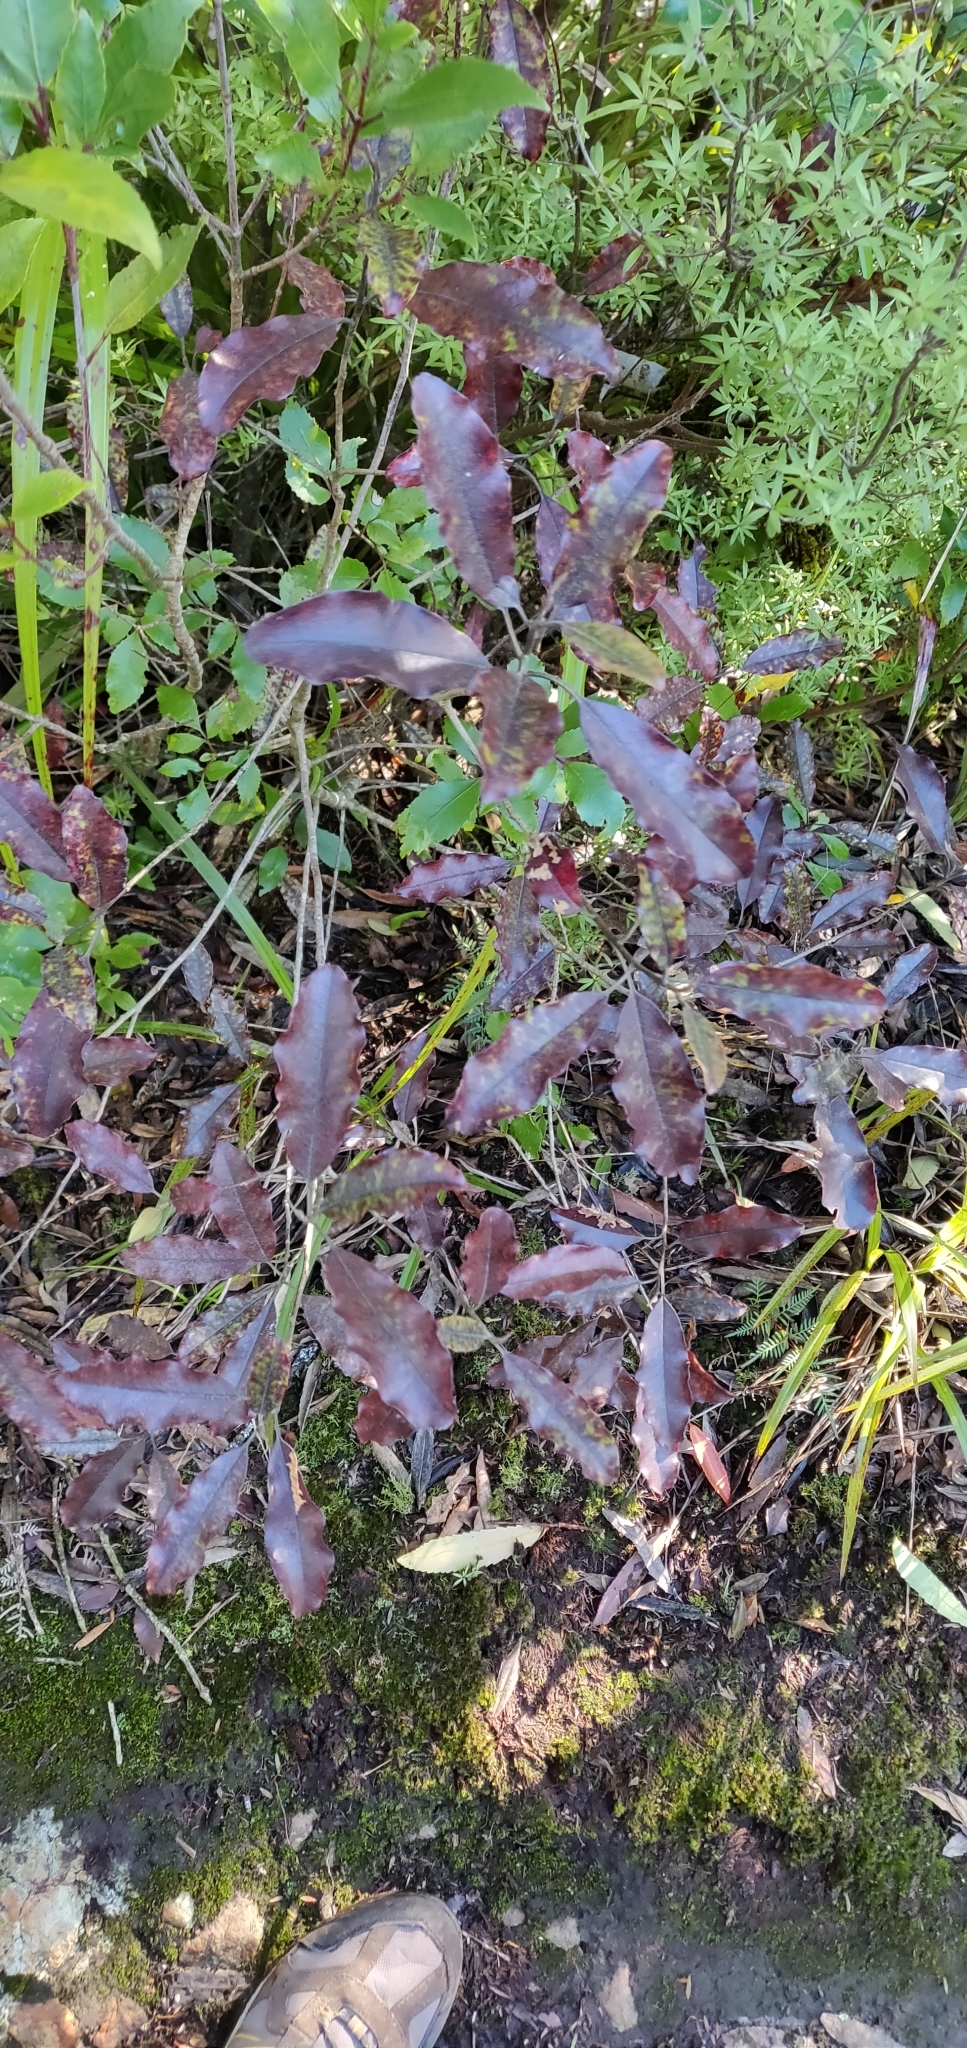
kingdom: Plantae
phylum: Tracheophyta
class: Magnoliopsida
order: Paracryphiales
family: Paracryphiaceae
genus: Quintinia
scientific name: Quintinia serrata
